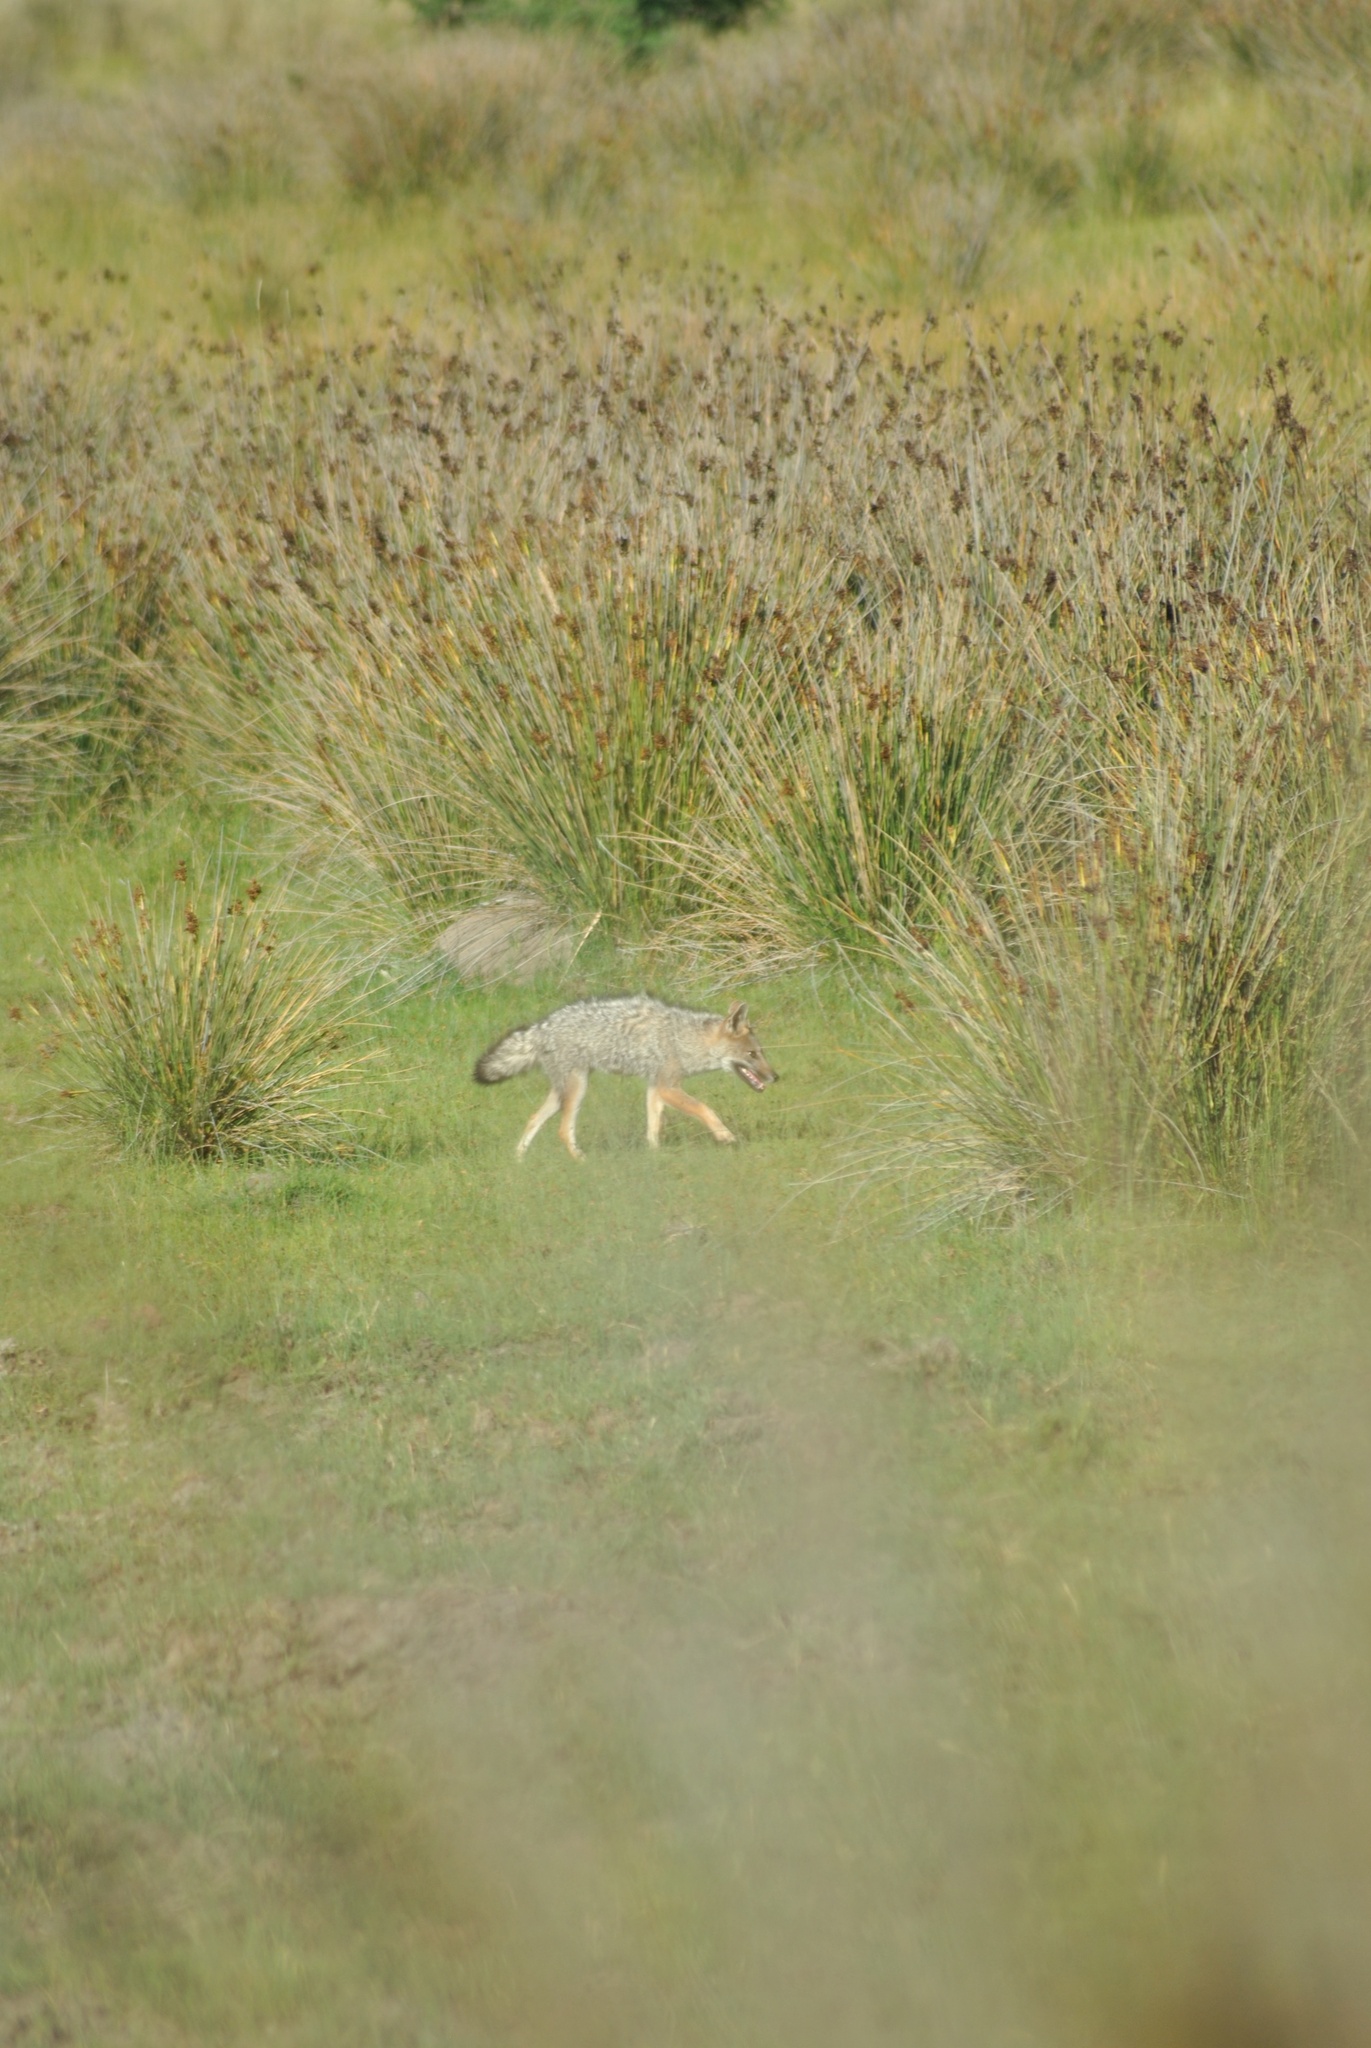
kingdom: Animalia
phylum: Chordata
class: Mammalia
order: Carnivora
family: Canidae
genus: Lycalopex
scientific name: Lycalopex gymnocercus
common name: Pampas fox
